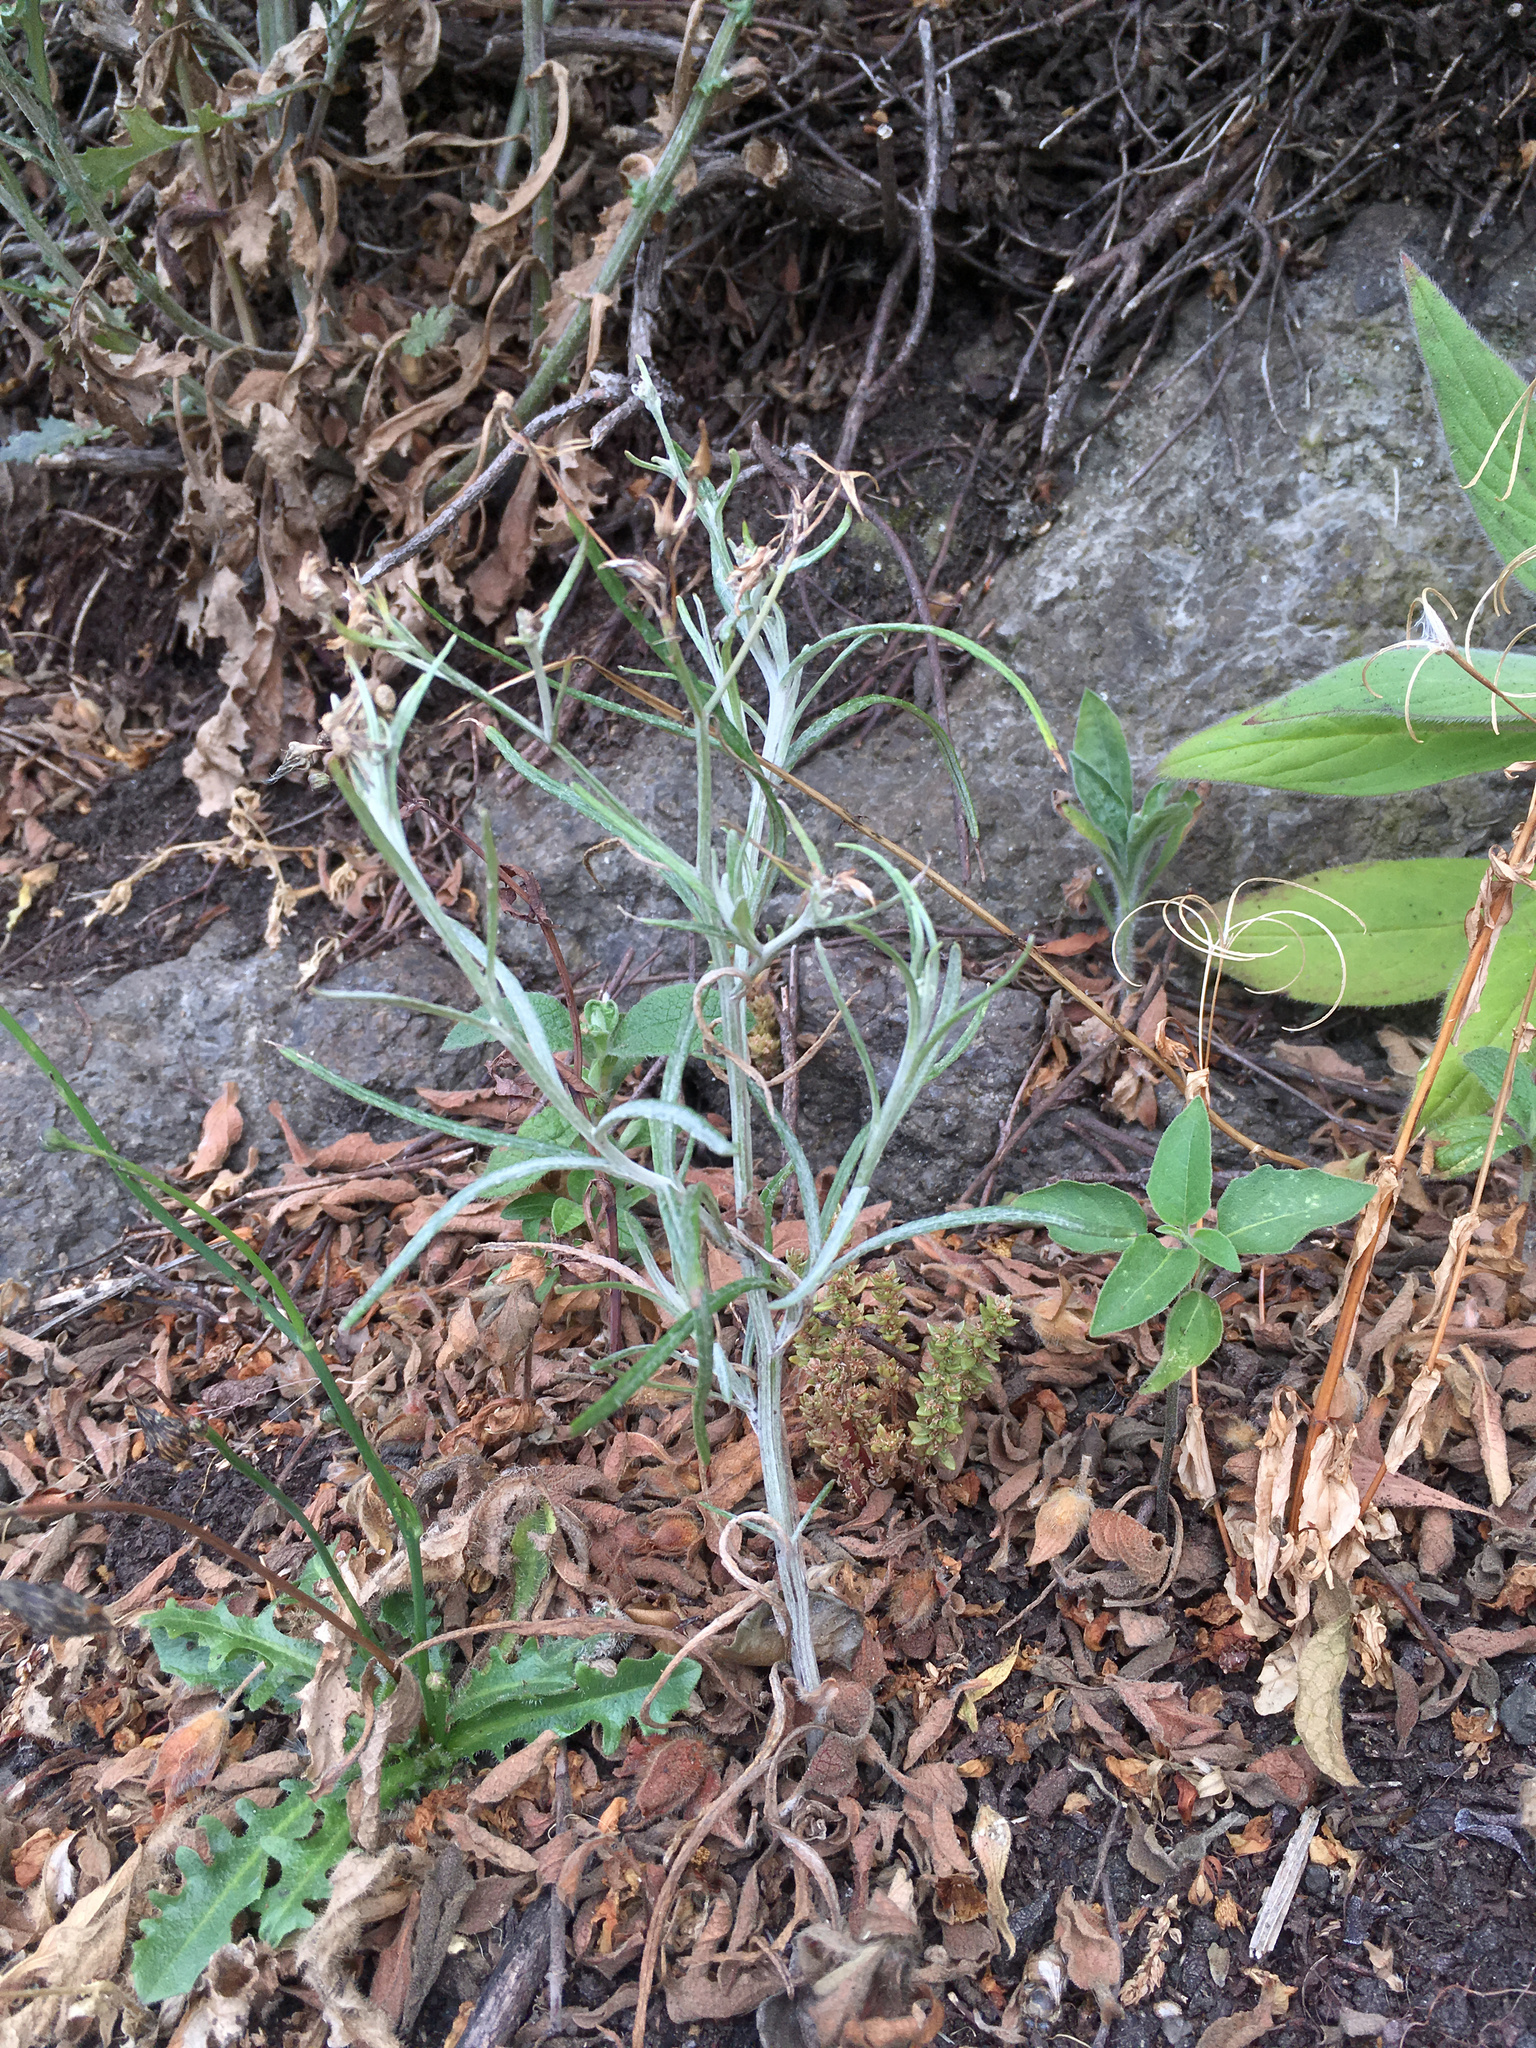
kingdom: Plantae
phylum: Tracheophyta
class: Magnoliopsida
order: Asterales
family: Asteraceae
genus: Senecio
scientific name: Senecio quadridentatus
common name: Cotton fireweed
